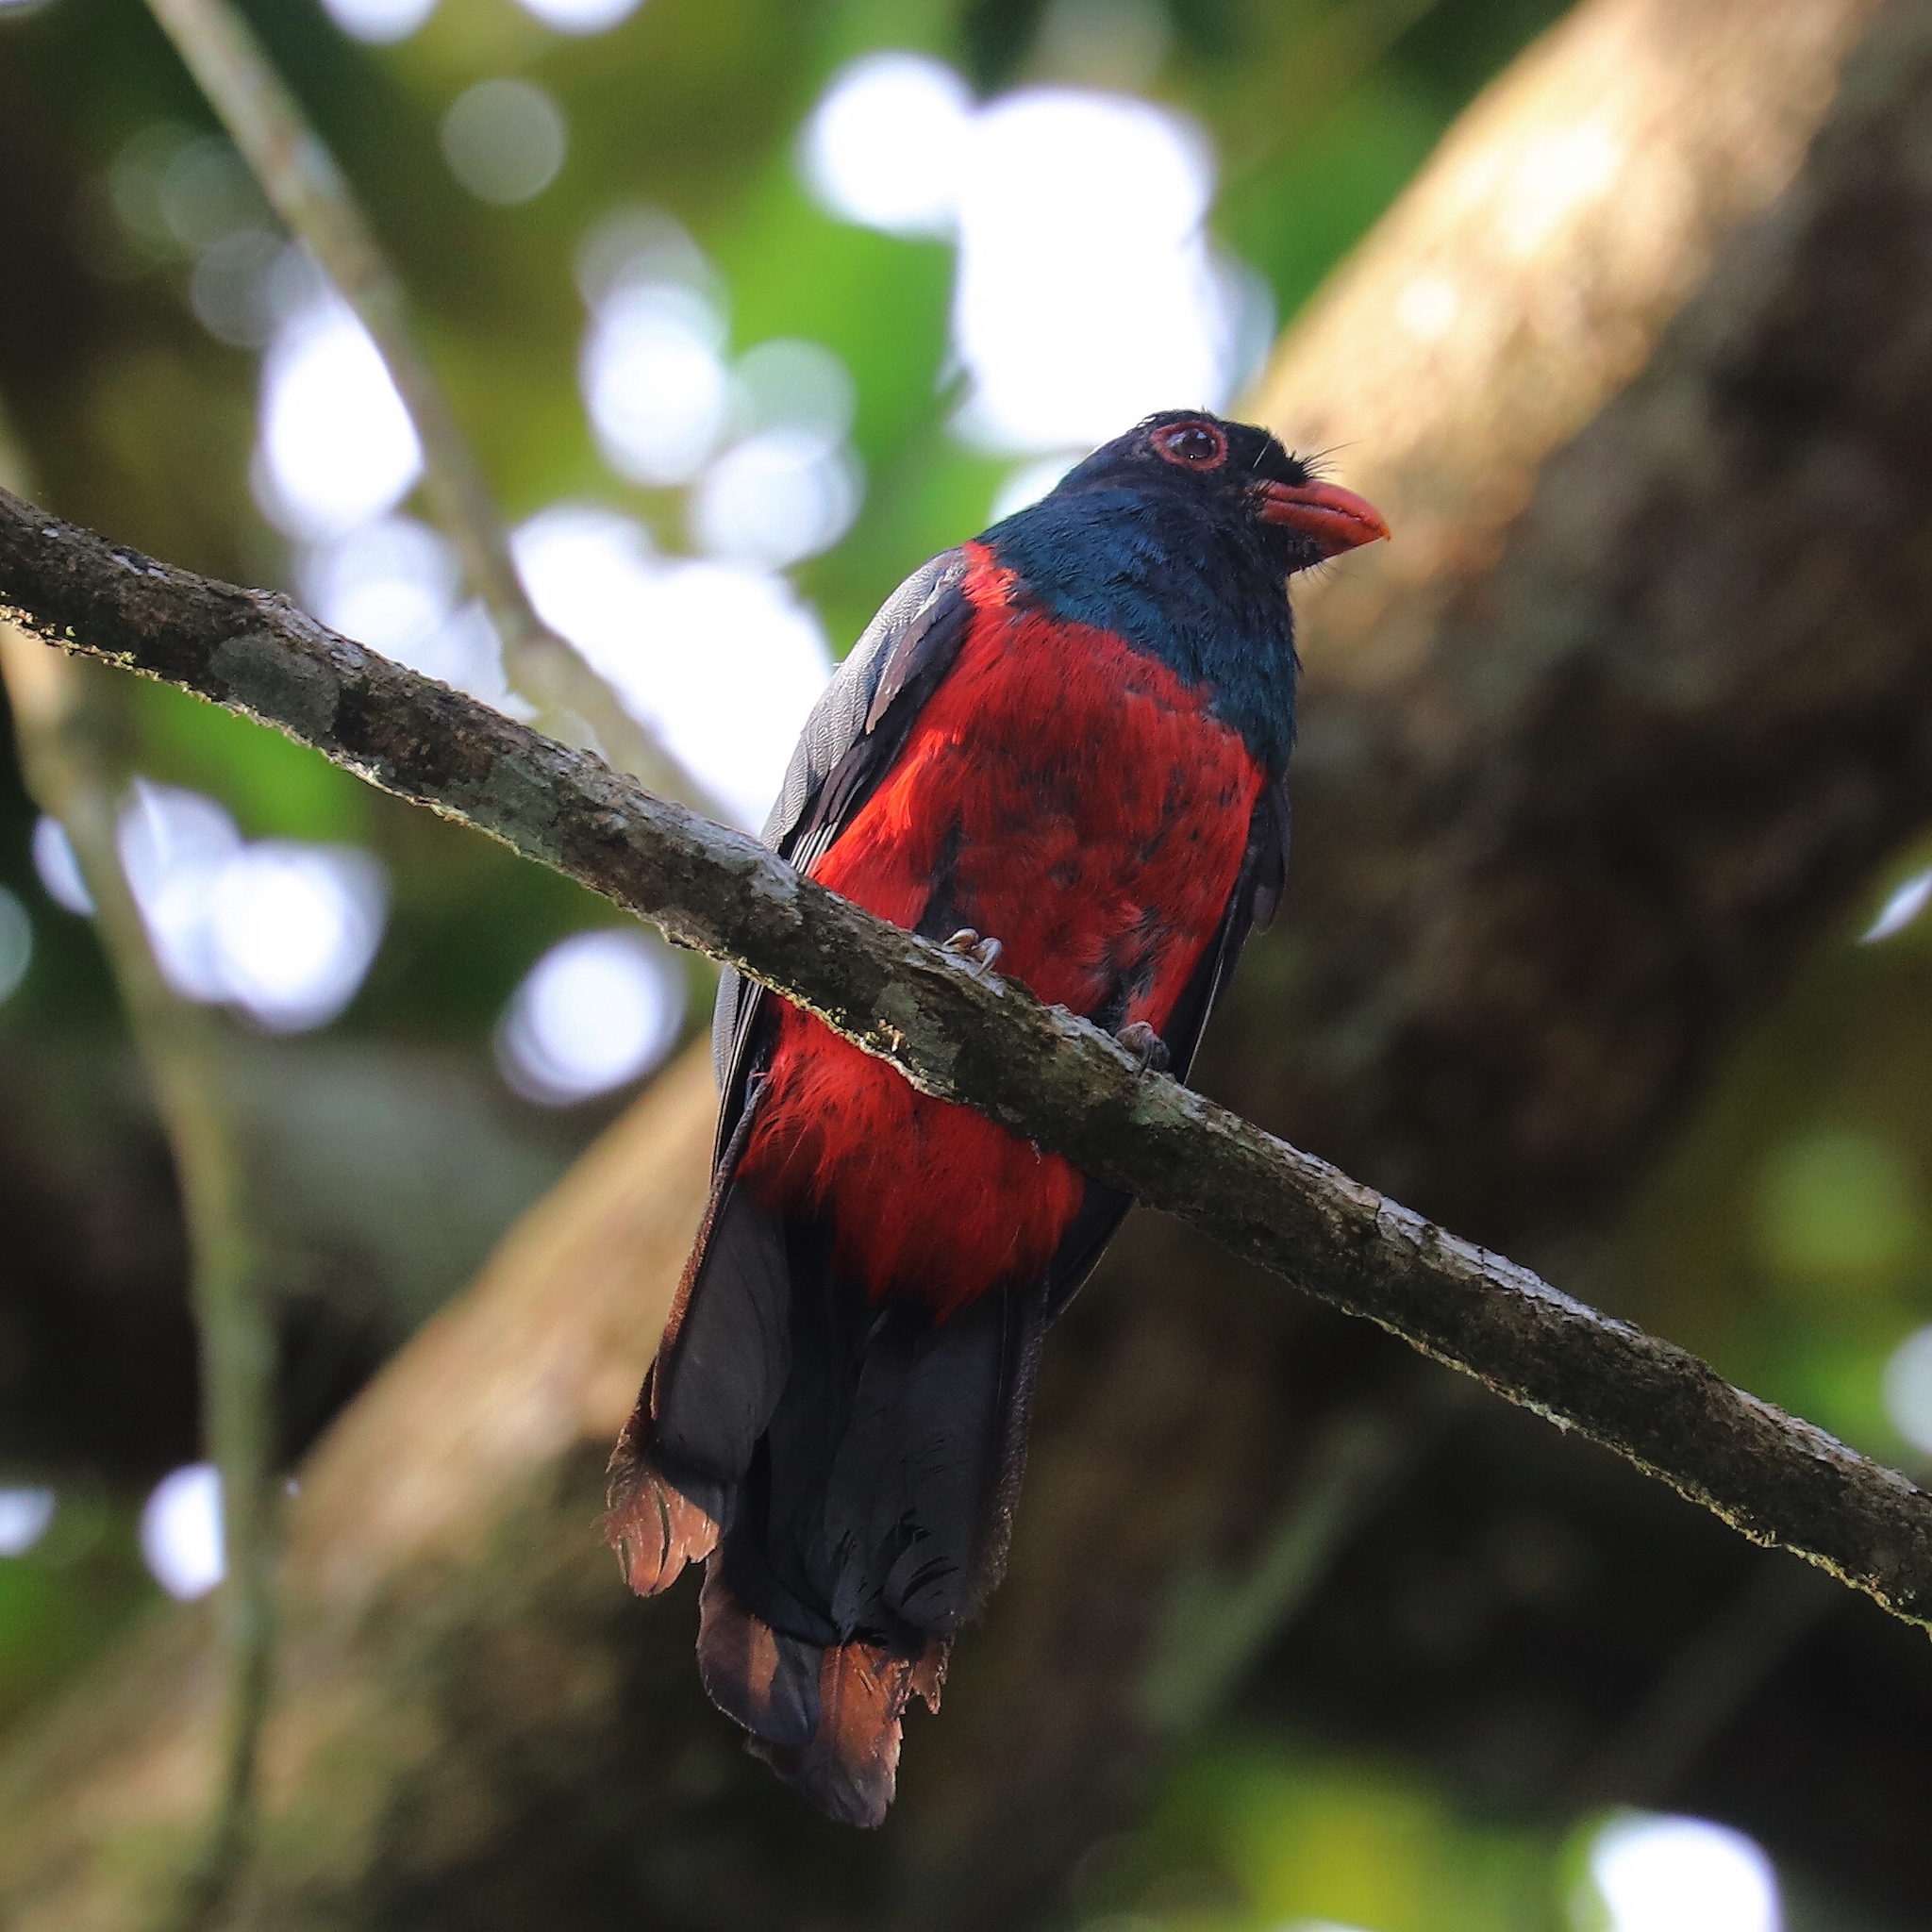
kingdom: Animalia
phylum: Chordata
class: Aves
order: Trogoniformes
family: Trogonidae
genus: Trogon
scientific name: Trogon massena
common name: Slaty-tailed trogon
